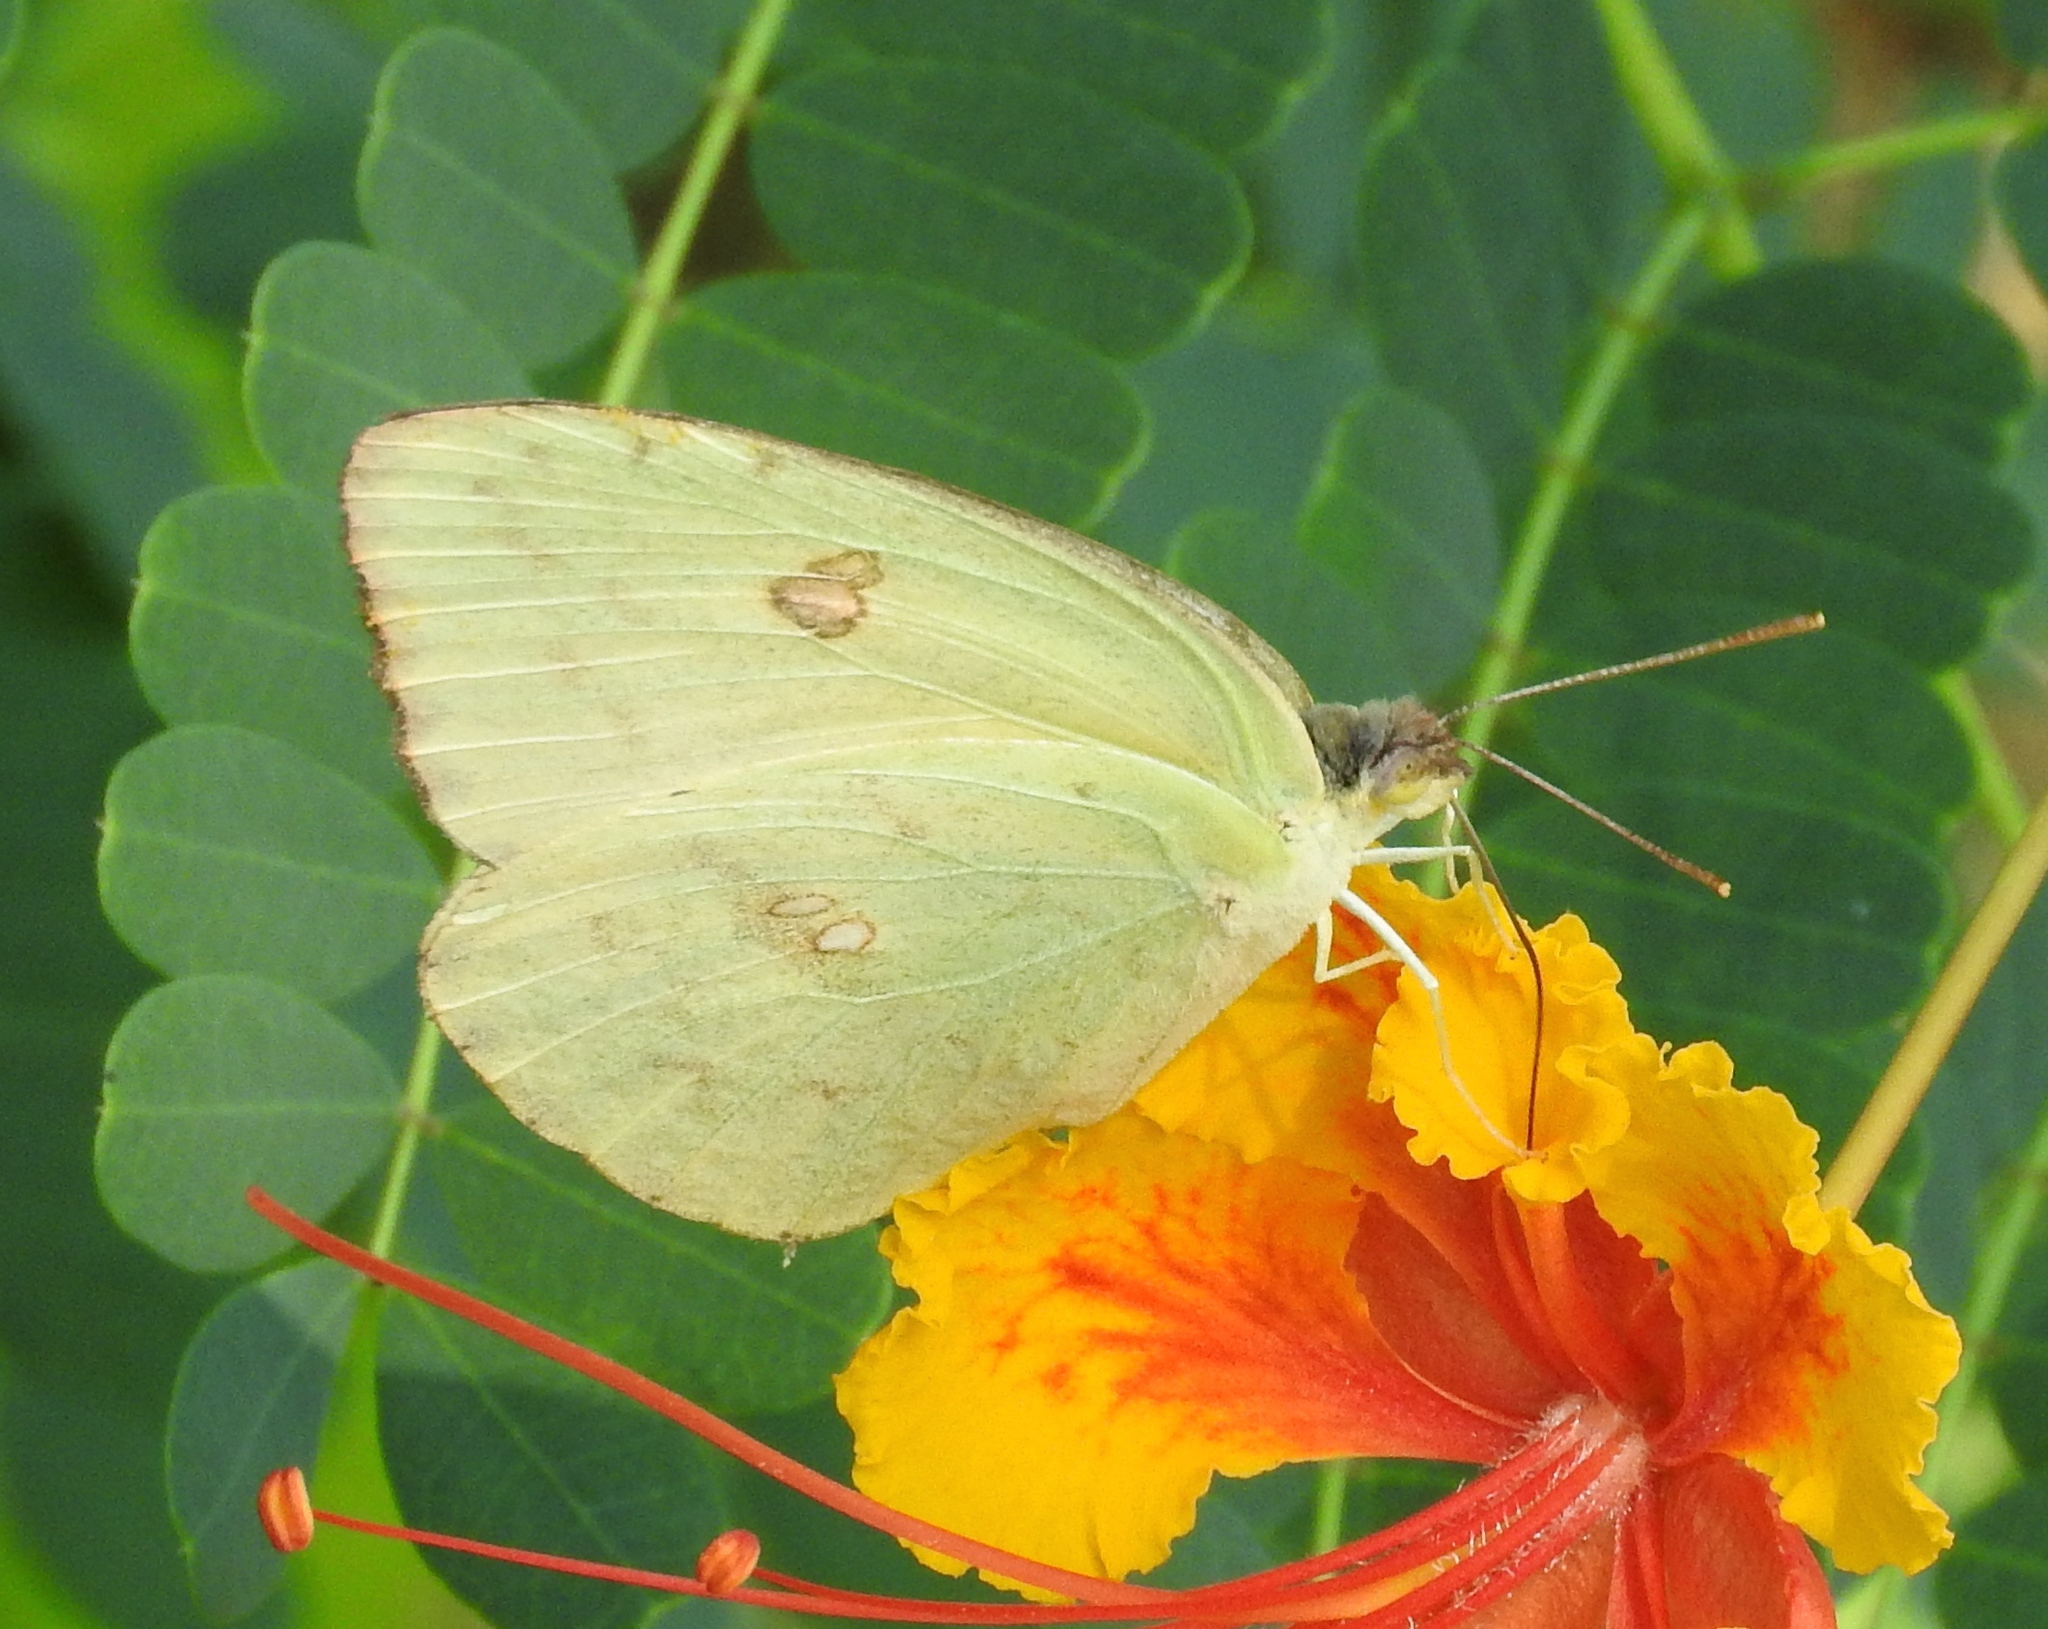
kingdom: Animalia
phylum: Arthropoda
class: Insecta
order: Lepidoptera
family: Pieridae
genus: Phoebis
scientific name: Phoebis marcellina
